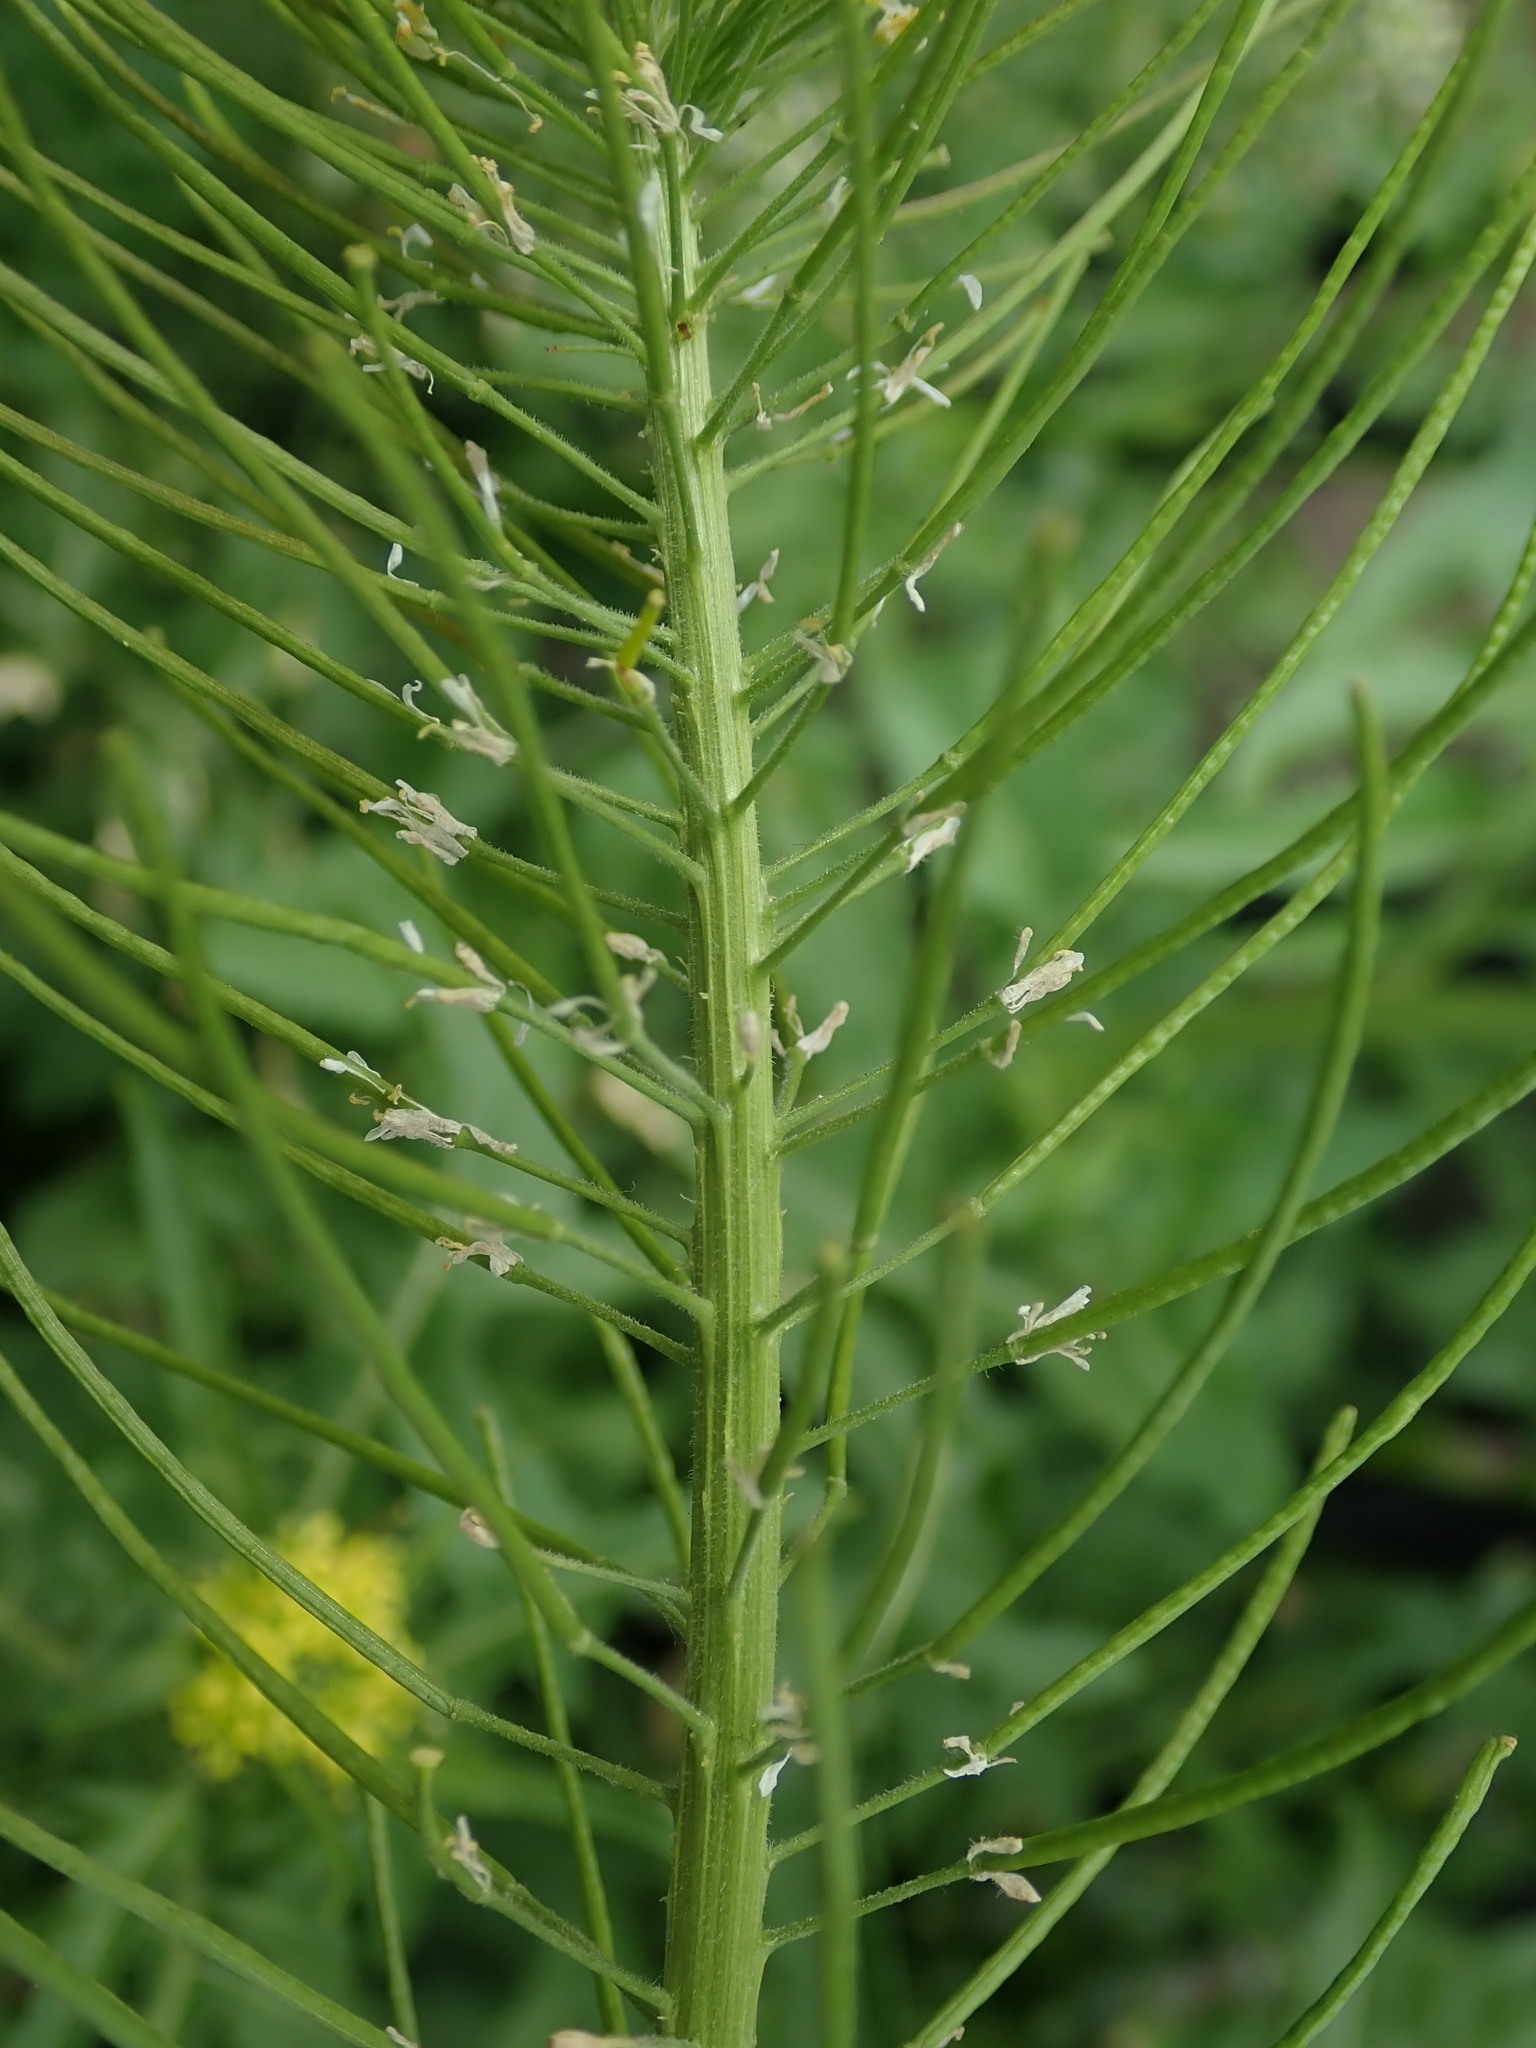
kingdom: Plantae
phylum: Tracheophyta
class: Magnoliopsida
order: Brassicales
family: Brassicaceae
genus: Sisymbrium
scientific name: Sisymbrium irio
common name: London rocket
